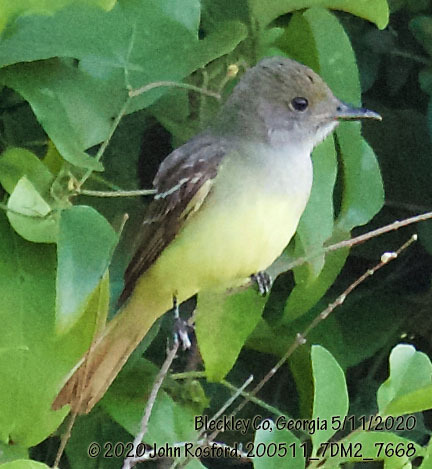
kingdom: Animalia
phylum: Chordata
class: Aves
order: Passeriformes
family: Tyrannidae
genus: Myiarchus
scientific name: Myiarchus crinitus
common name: Great crested flycatcher
